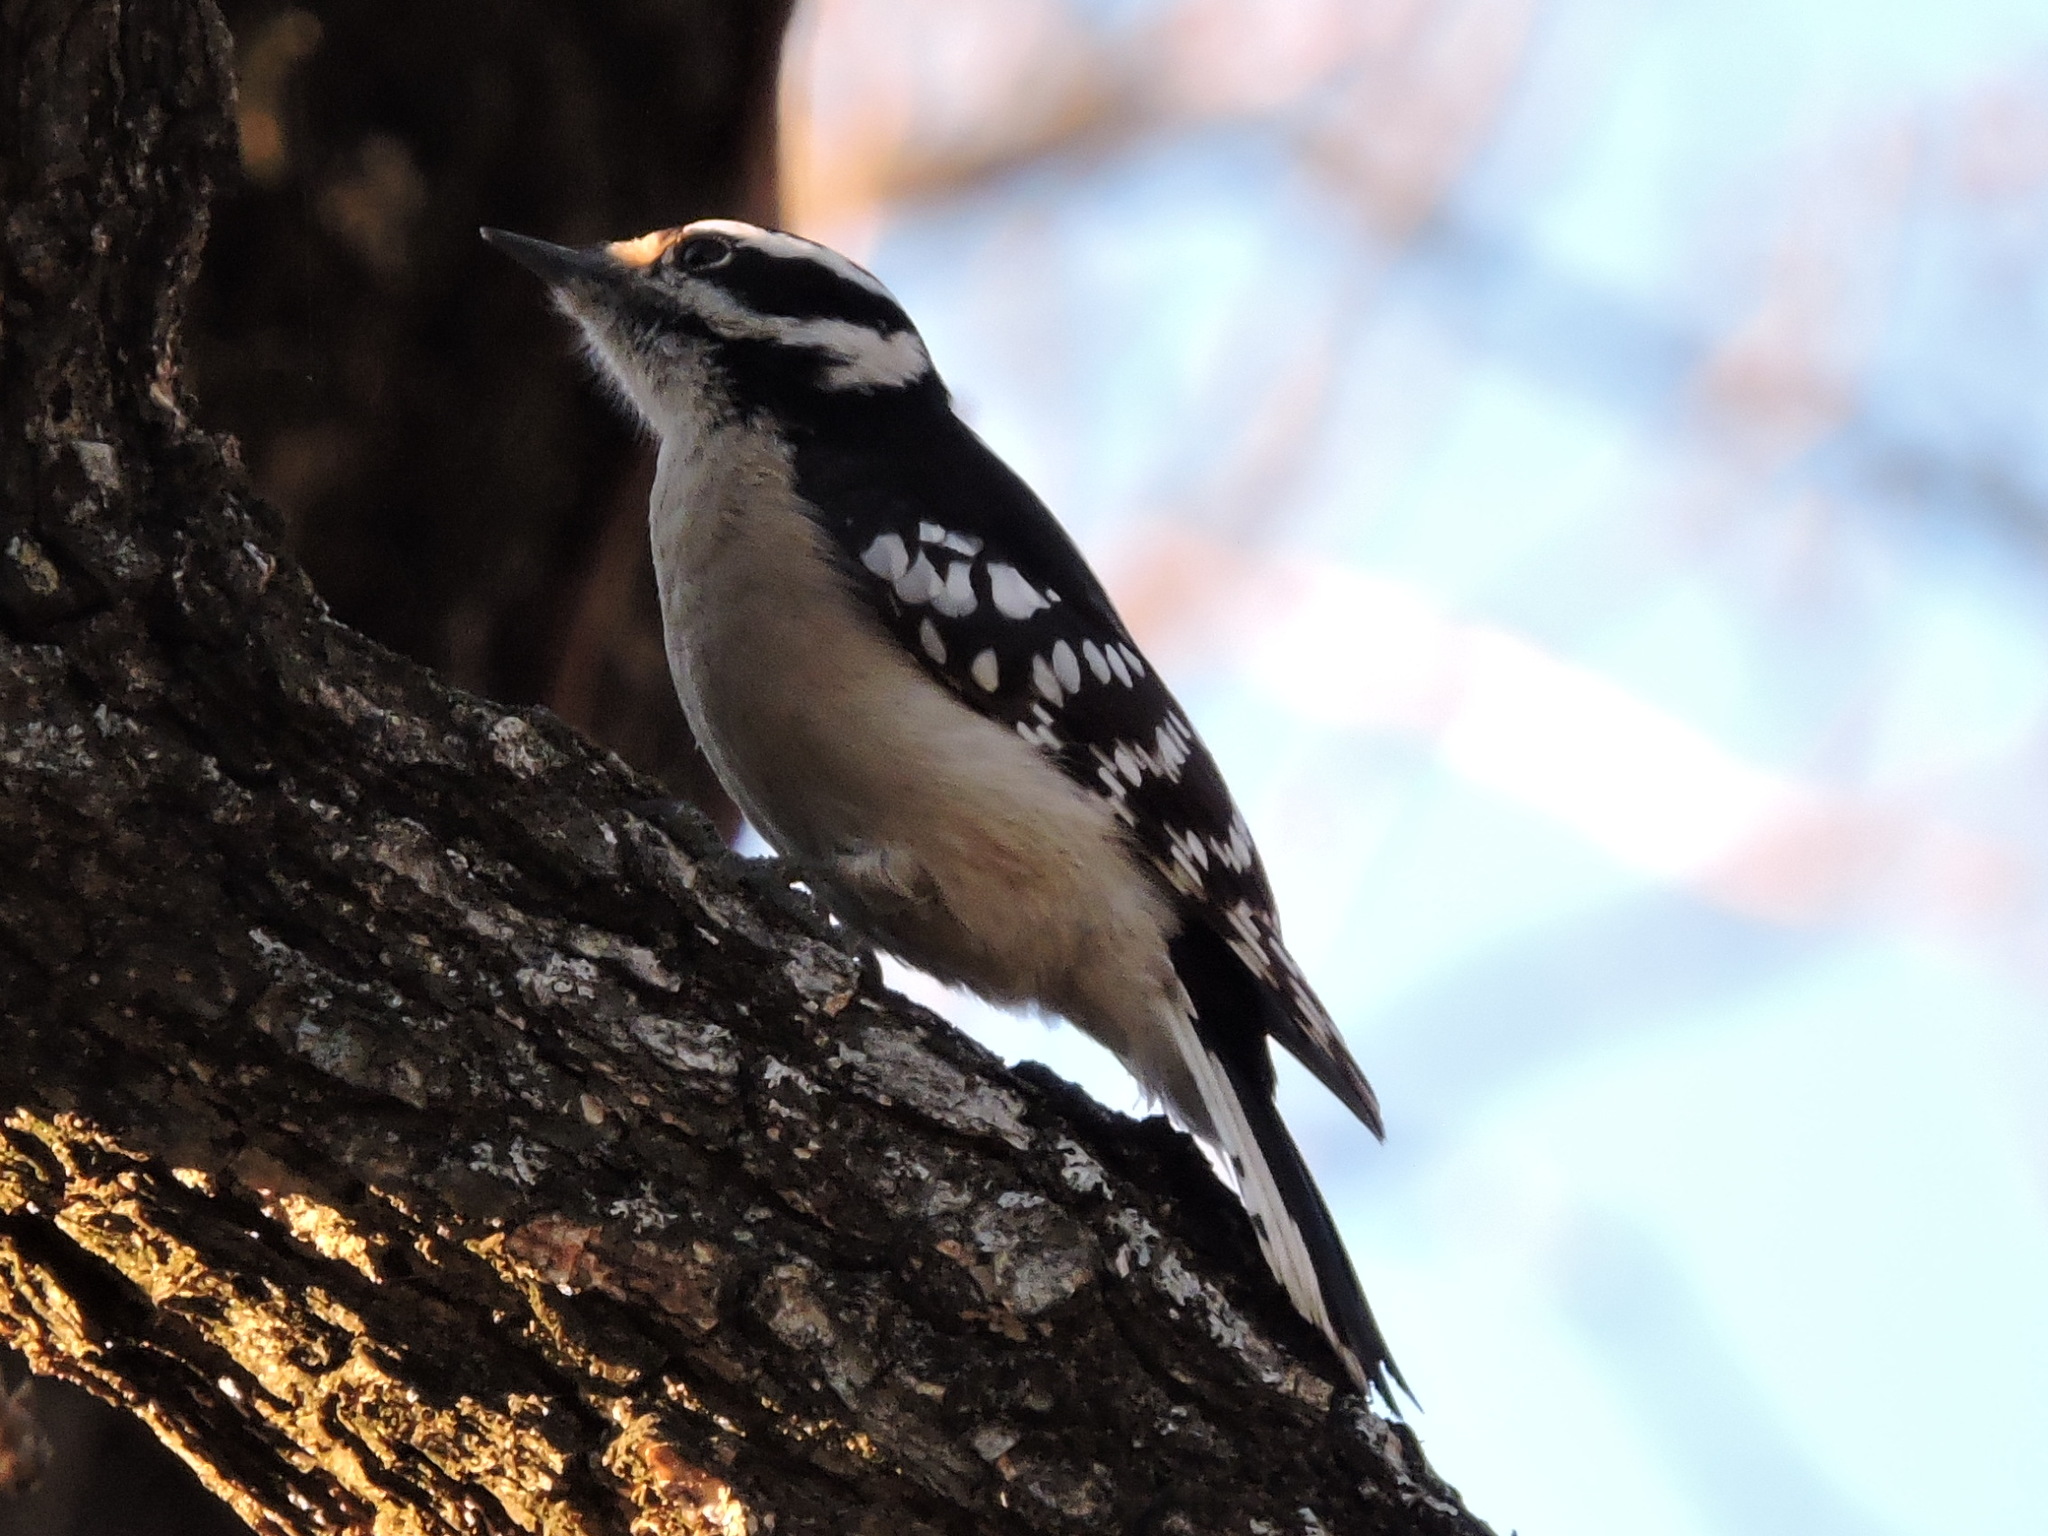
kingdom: Animalia
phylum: Chordata
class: Aves
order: Piciformes
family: Picidae
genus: Dryobates
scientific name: Dryobates pubescens
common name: Downy woodpecker
